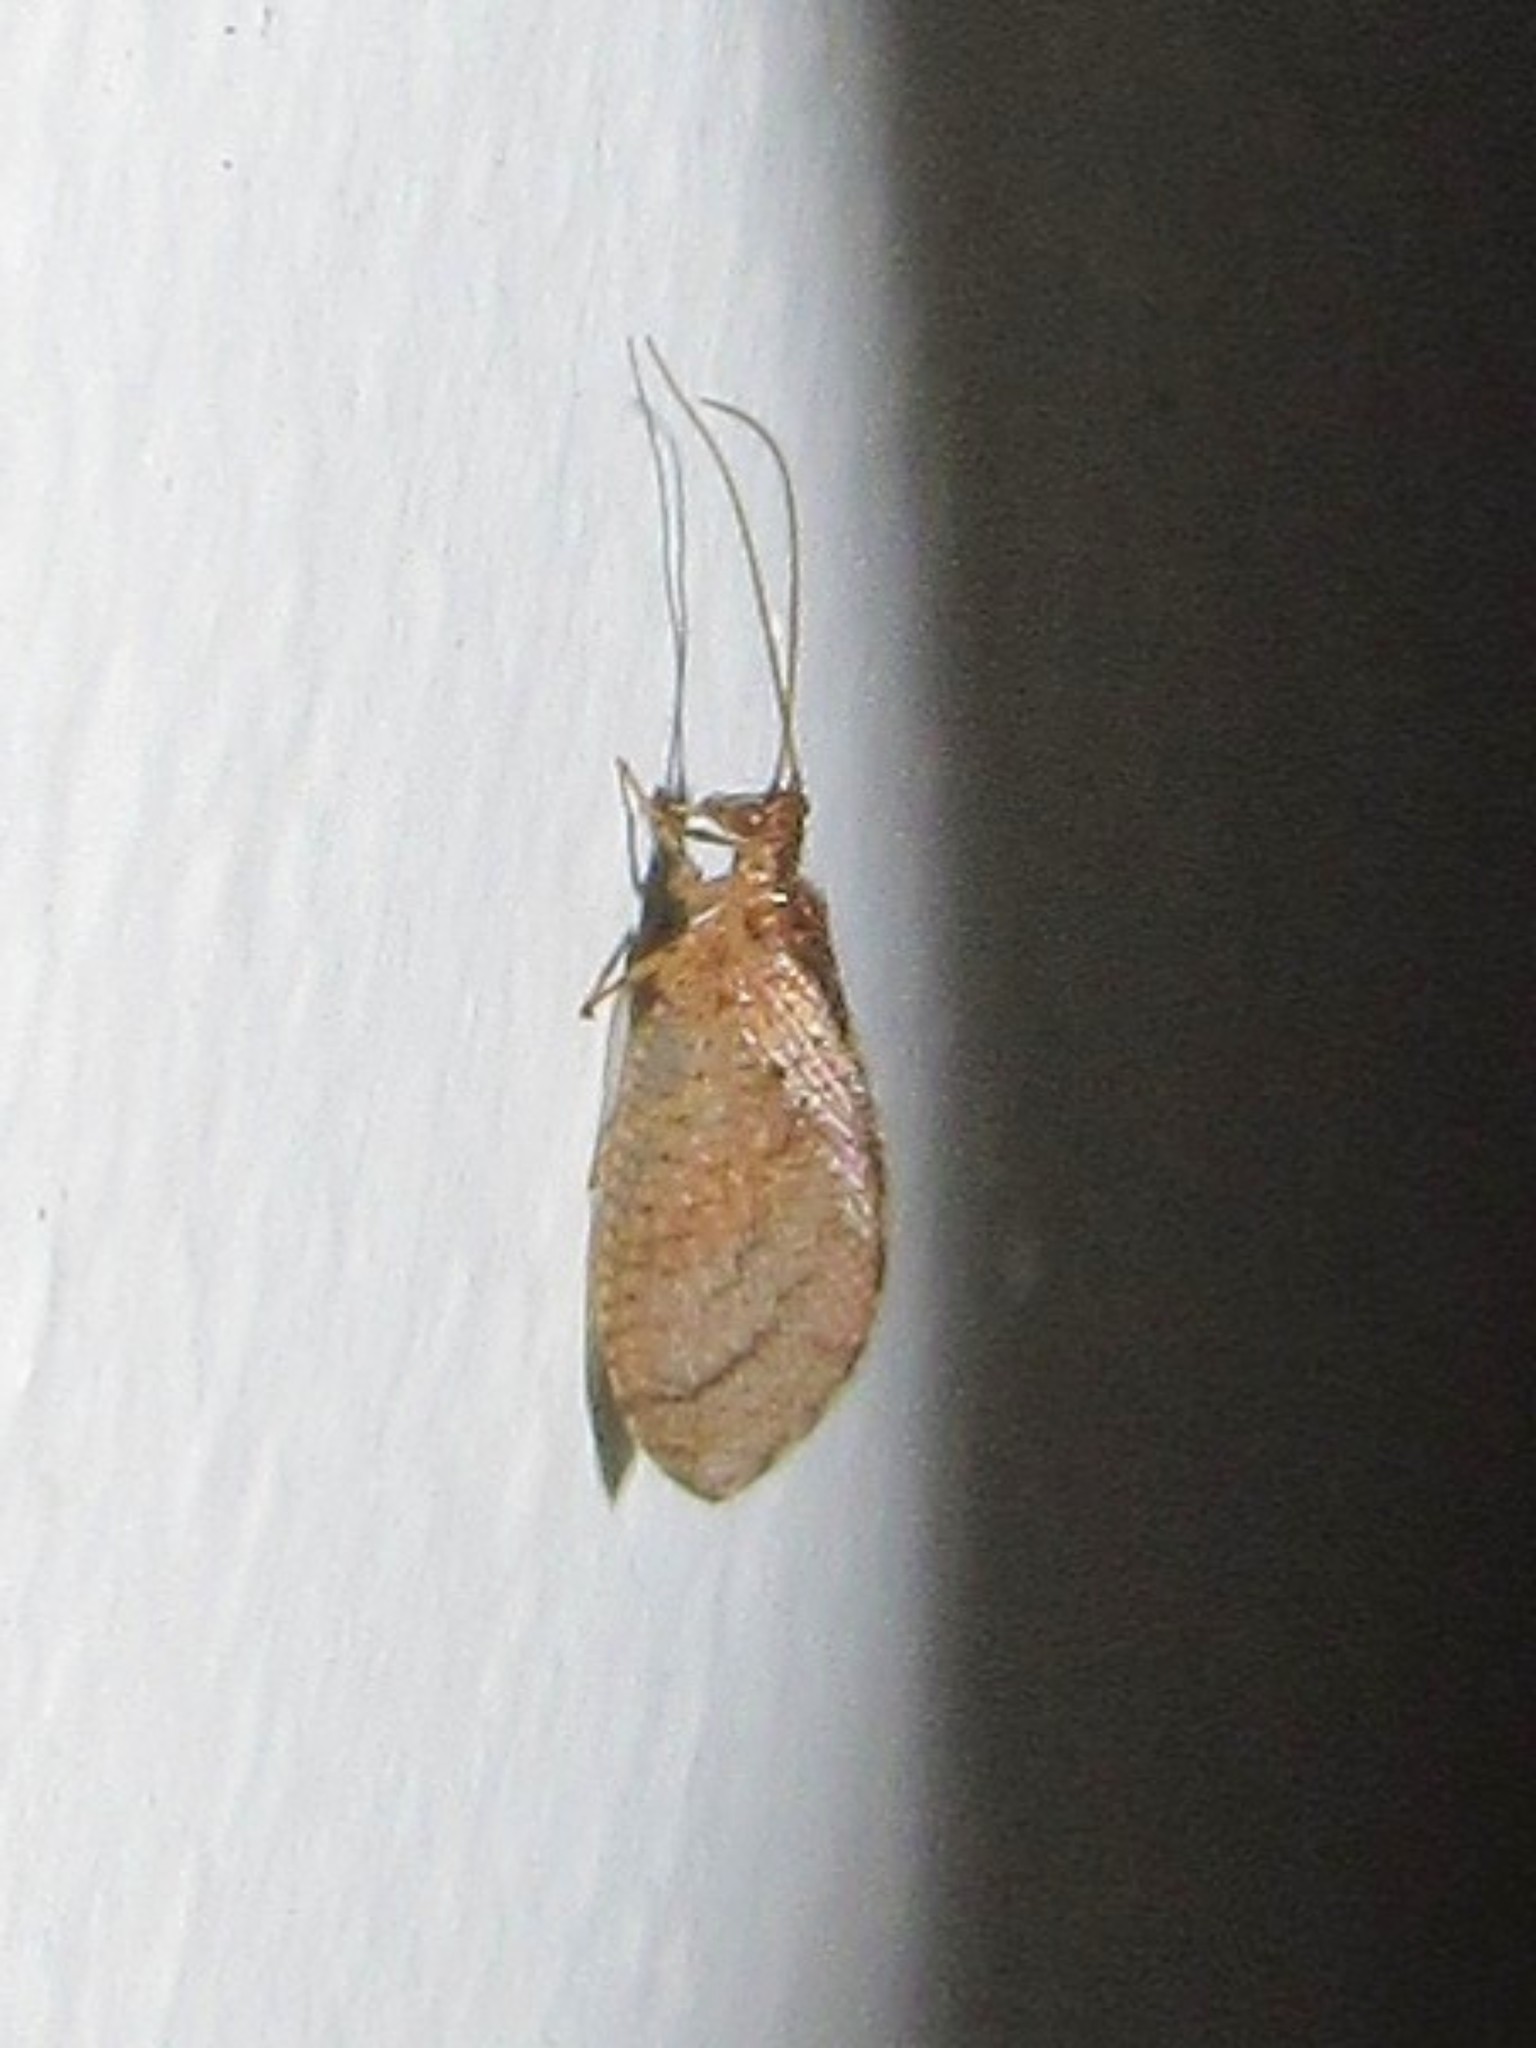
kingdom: Animalia
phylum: Arthropoda
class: Insecta
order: Neuroptera
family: Hemerobiidae
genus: Nusalala
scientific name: Nusalala tessellata
